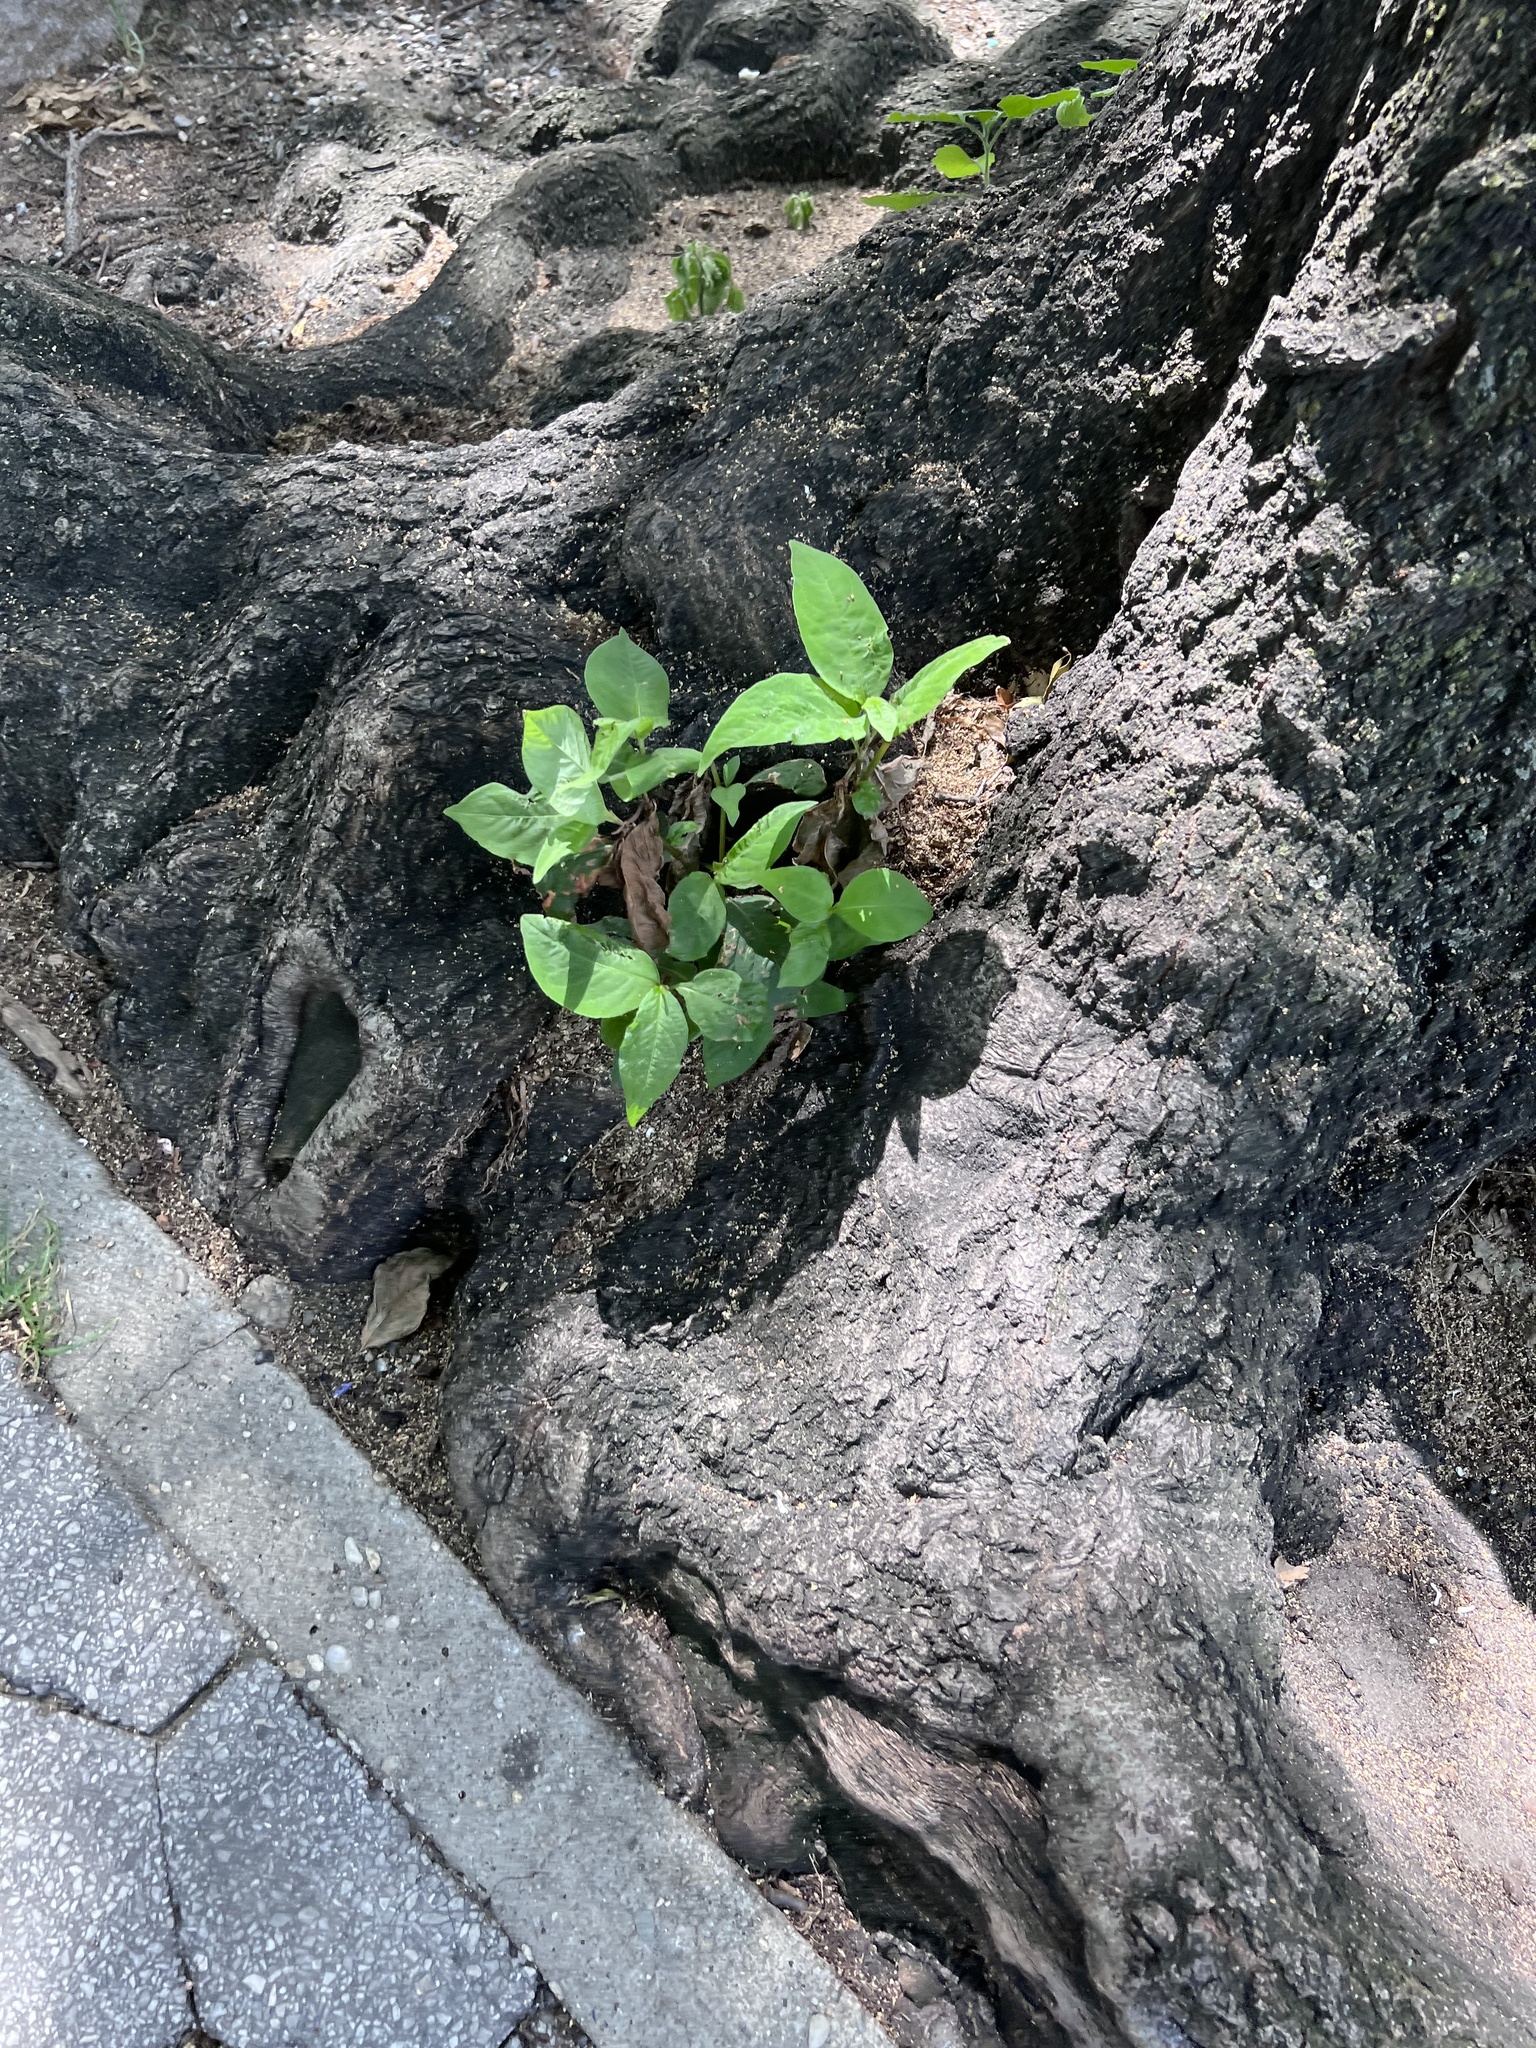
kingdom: Plantae
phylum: Tracheophyta
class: Magnoliopsida
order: Caryophyllales
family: Polygonaceae
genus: Persicaria
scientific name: Persicaria virginiana
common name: Jumpseed
